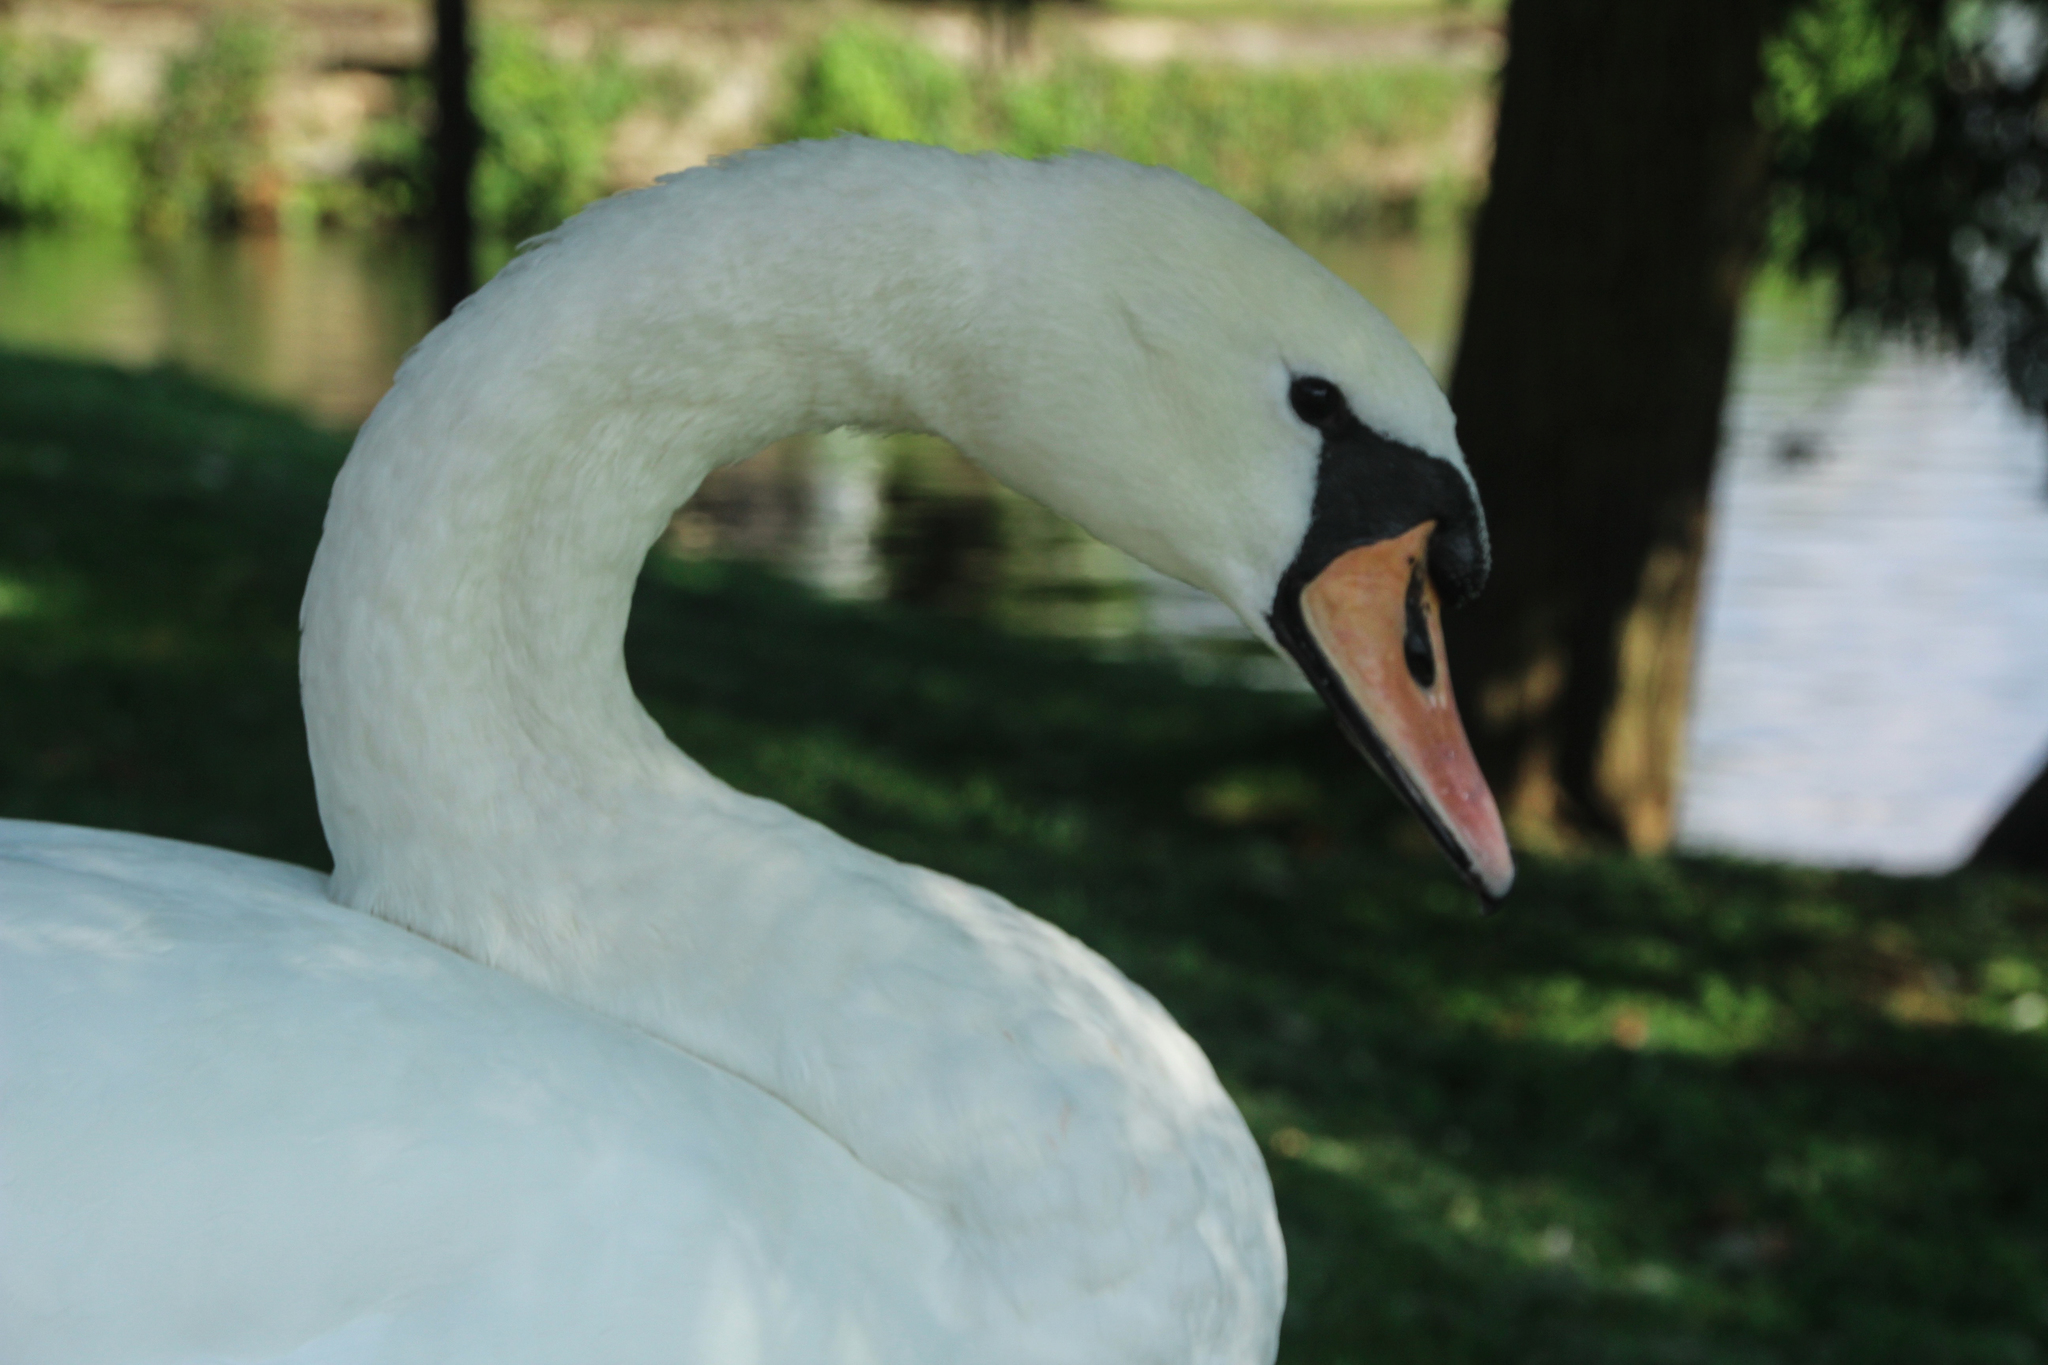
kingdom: Animalia
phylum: Chordata
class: Aves
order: Anseriformes
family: Anatidae
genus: Cygnus
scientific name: Cygnus olor
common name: Mute swan
